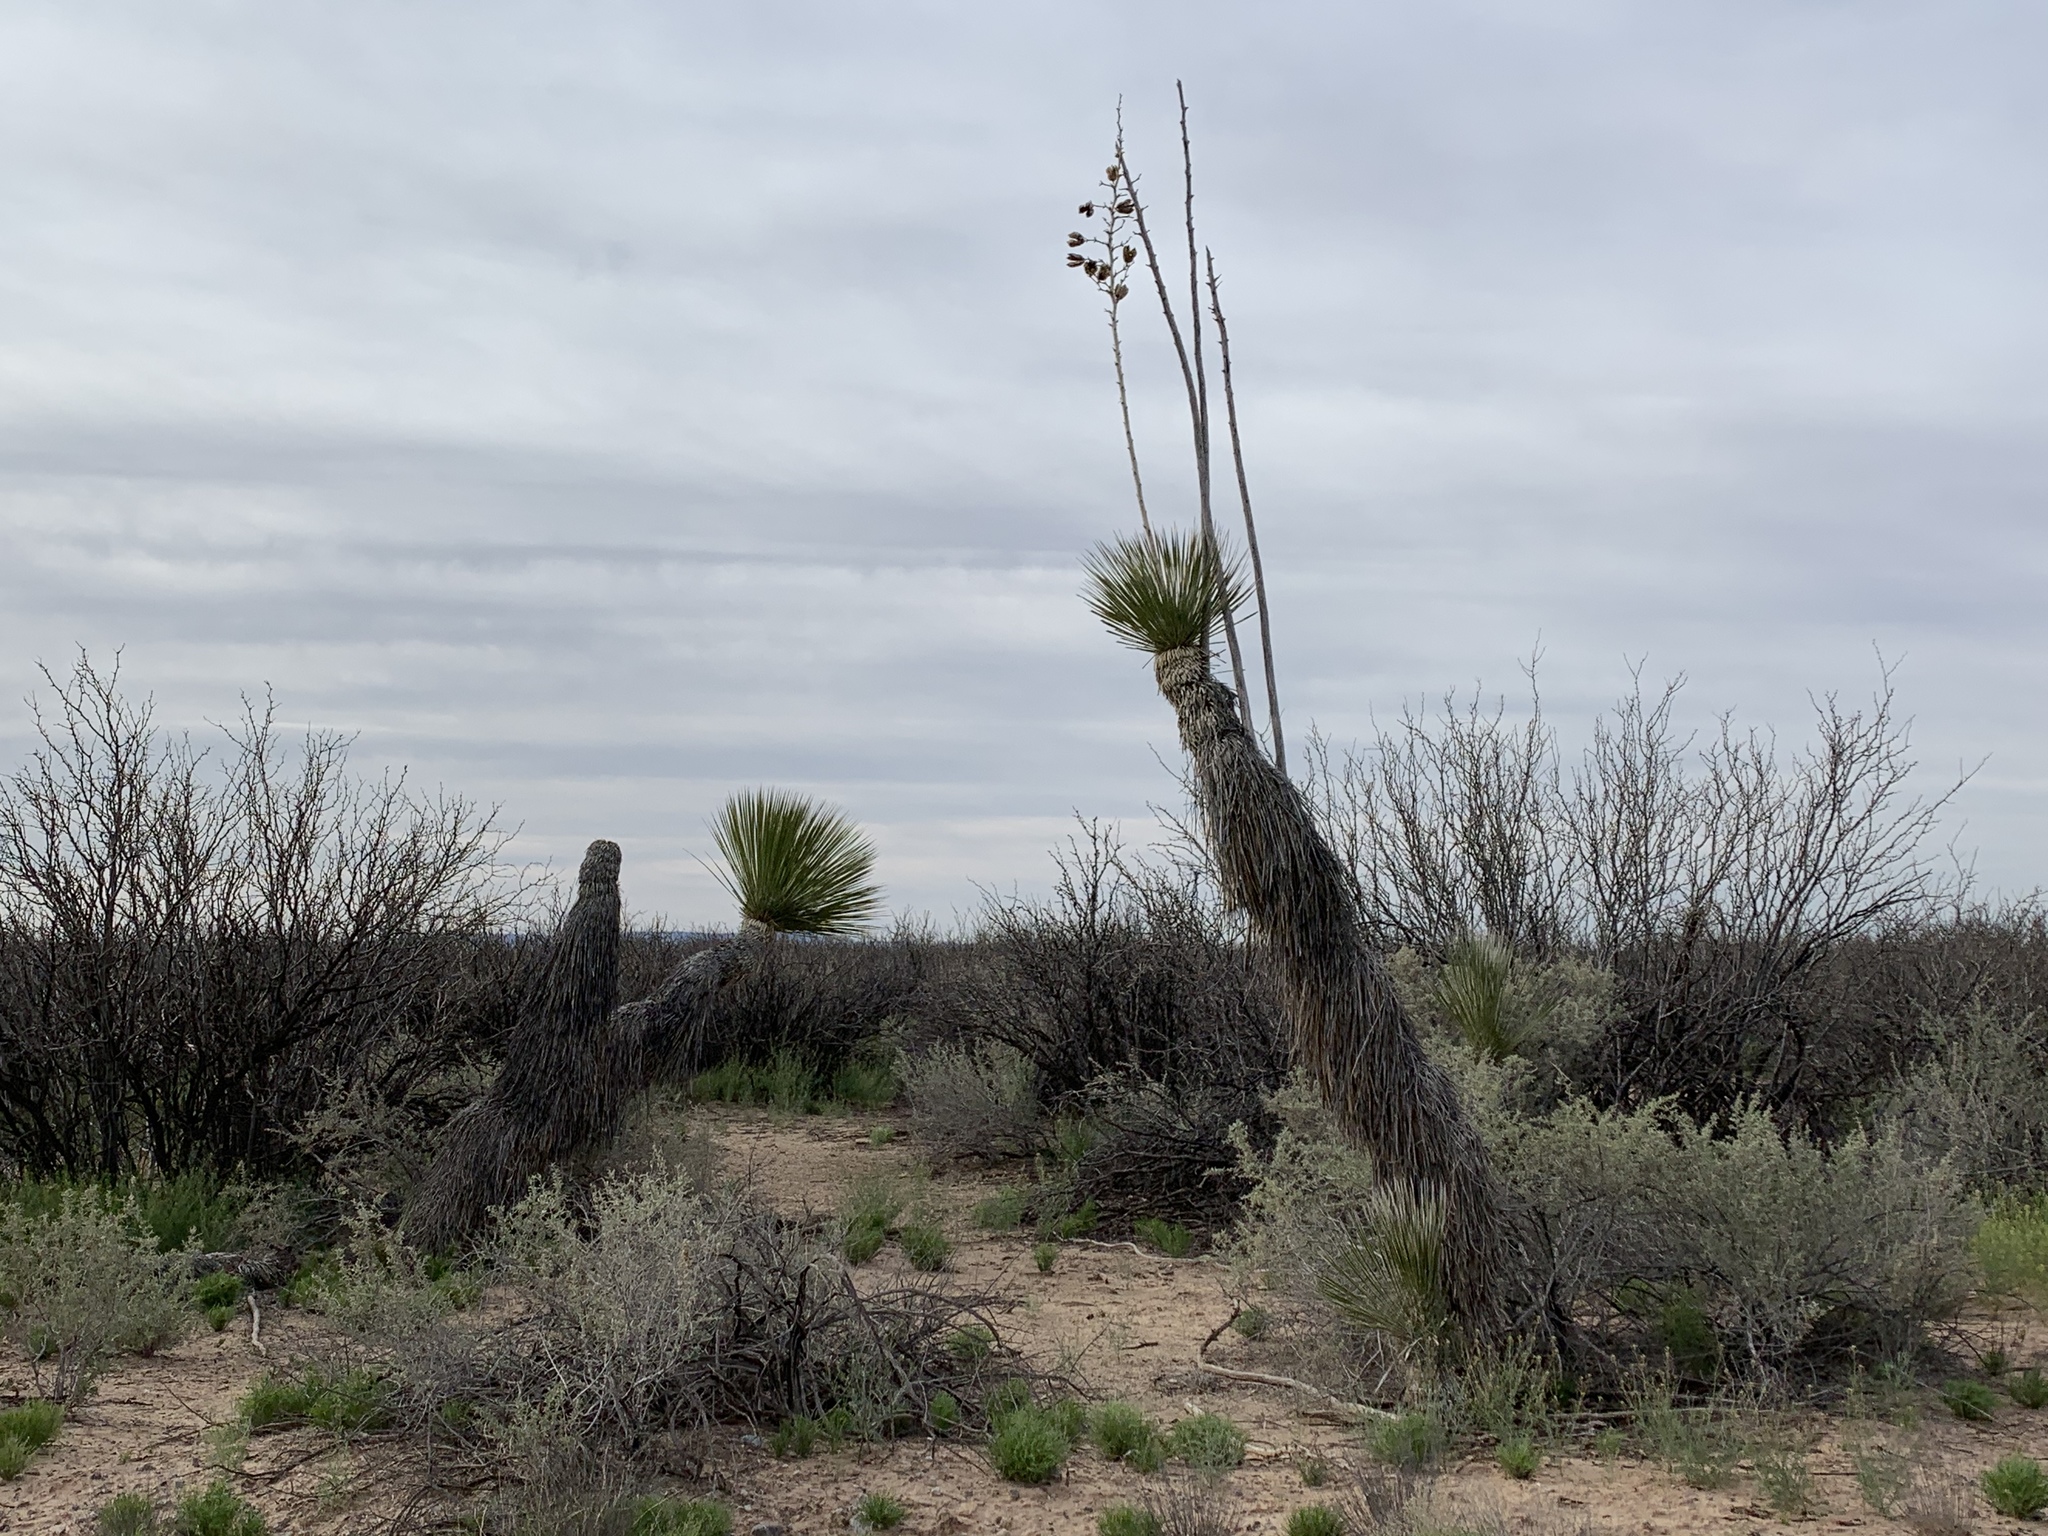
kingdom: Plantae
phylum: Tracheophyta
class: Liliopsida
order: Asparagales
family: Asparagaceae
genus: Yucca
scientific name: Yucca elata
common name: Palmella
